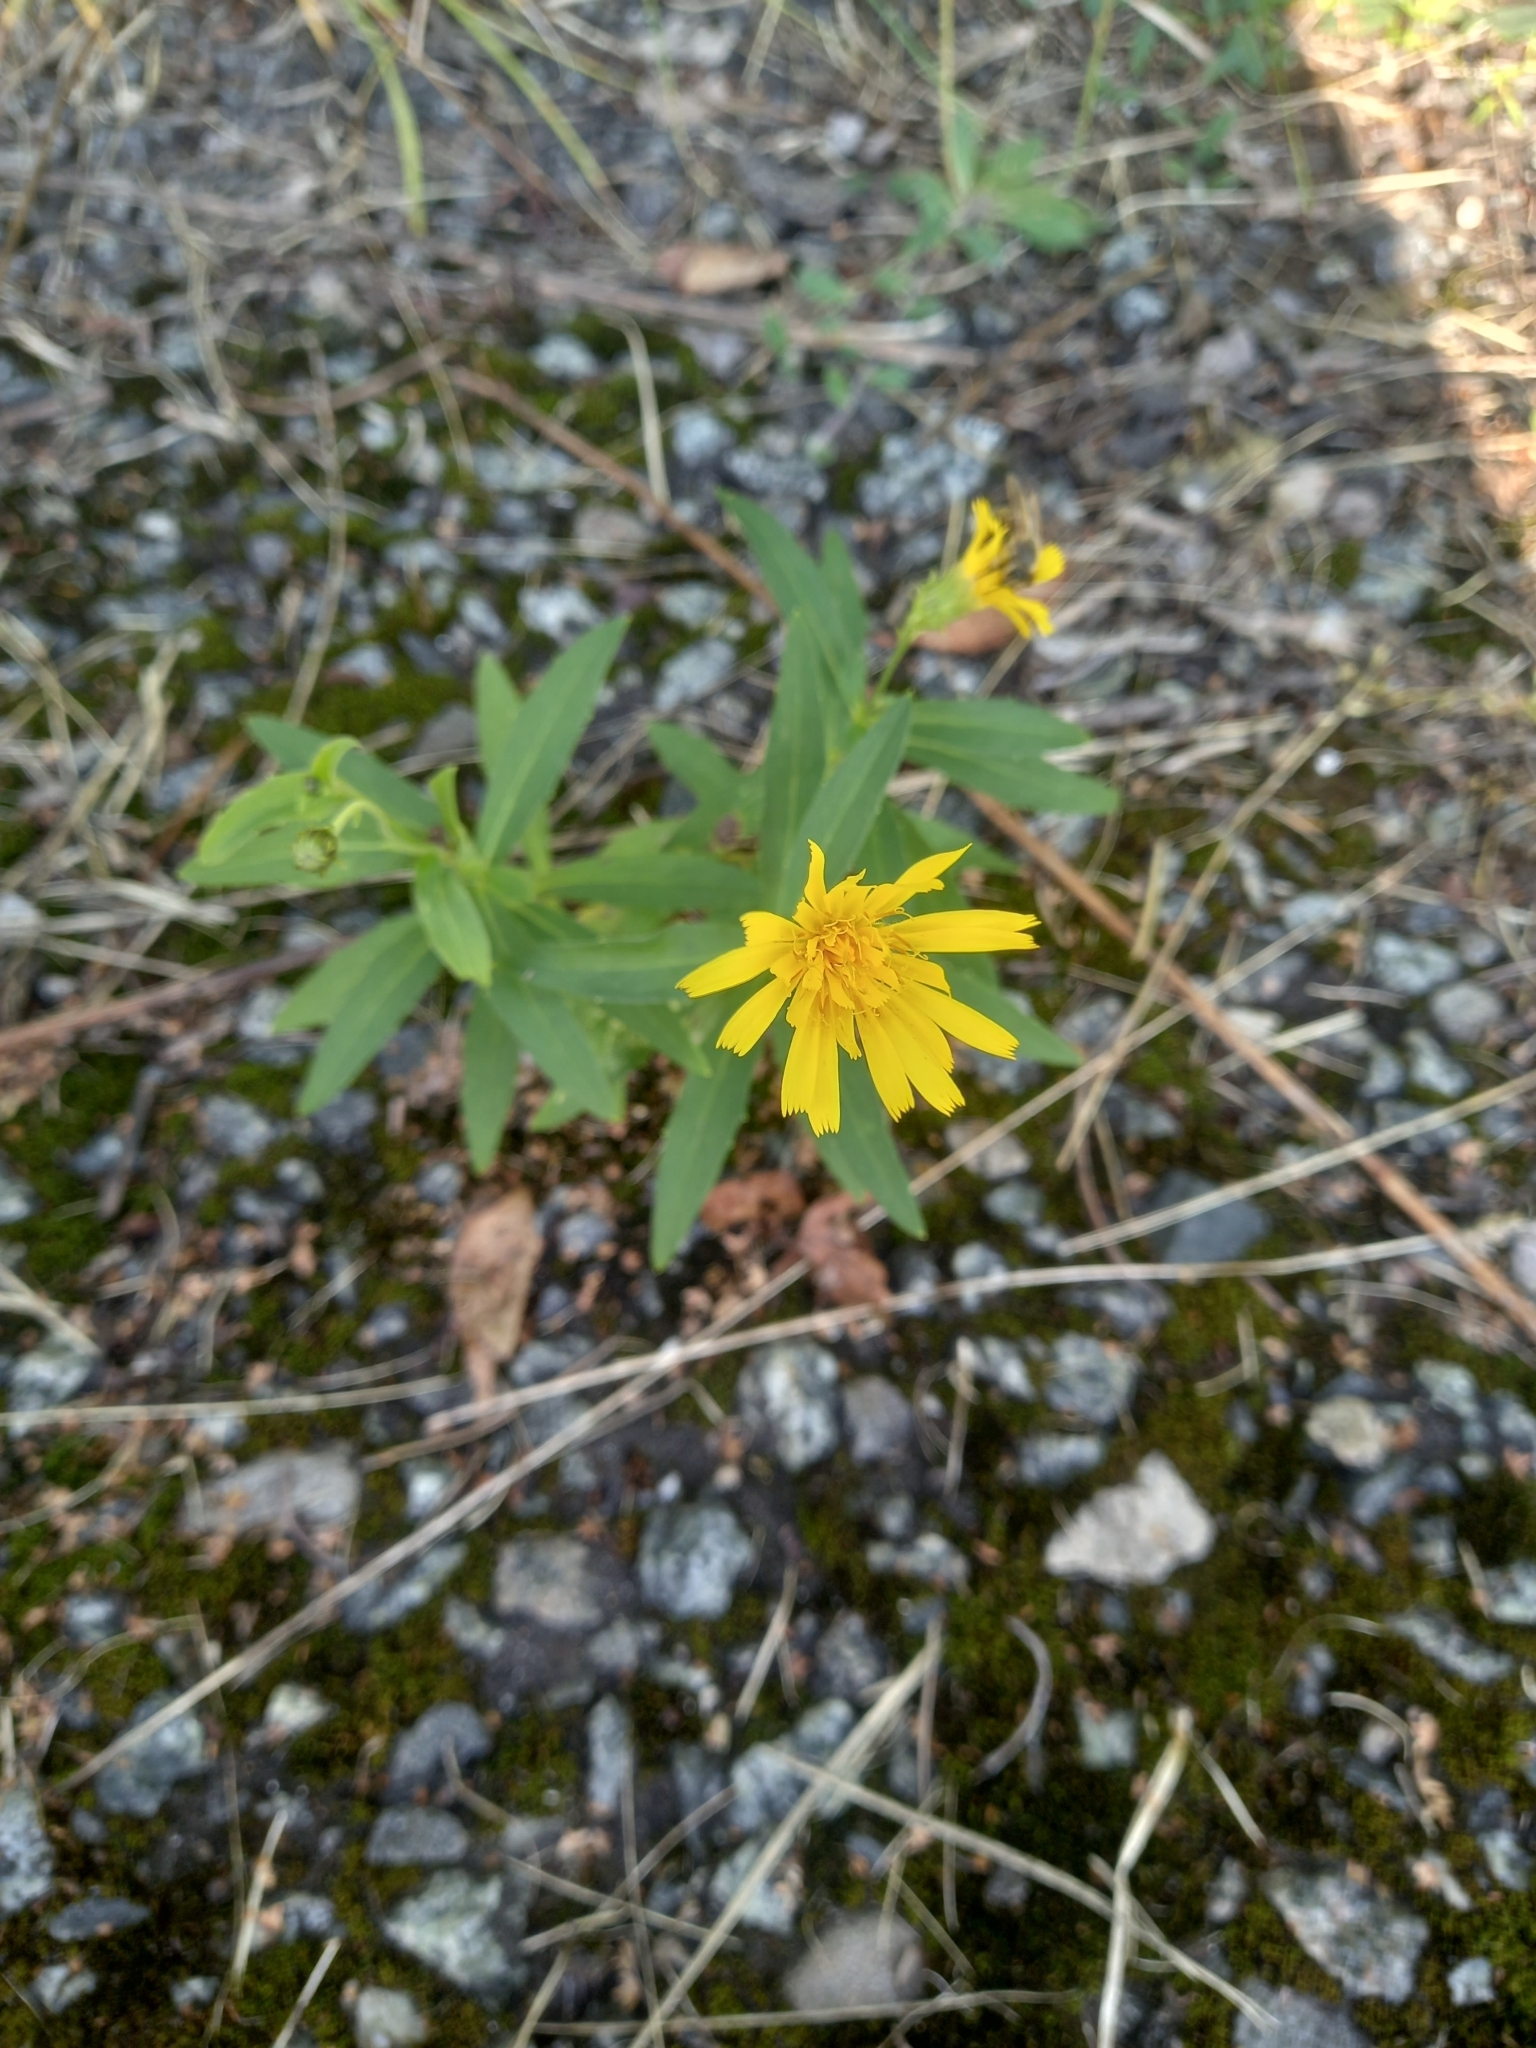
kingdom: Plantae
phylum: Tracheophyta
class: Magnoliopsida
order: Asterales
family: Asteraceae
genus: Hieracium
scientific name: Hieracium umbellatum
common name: Northern hawkweed
